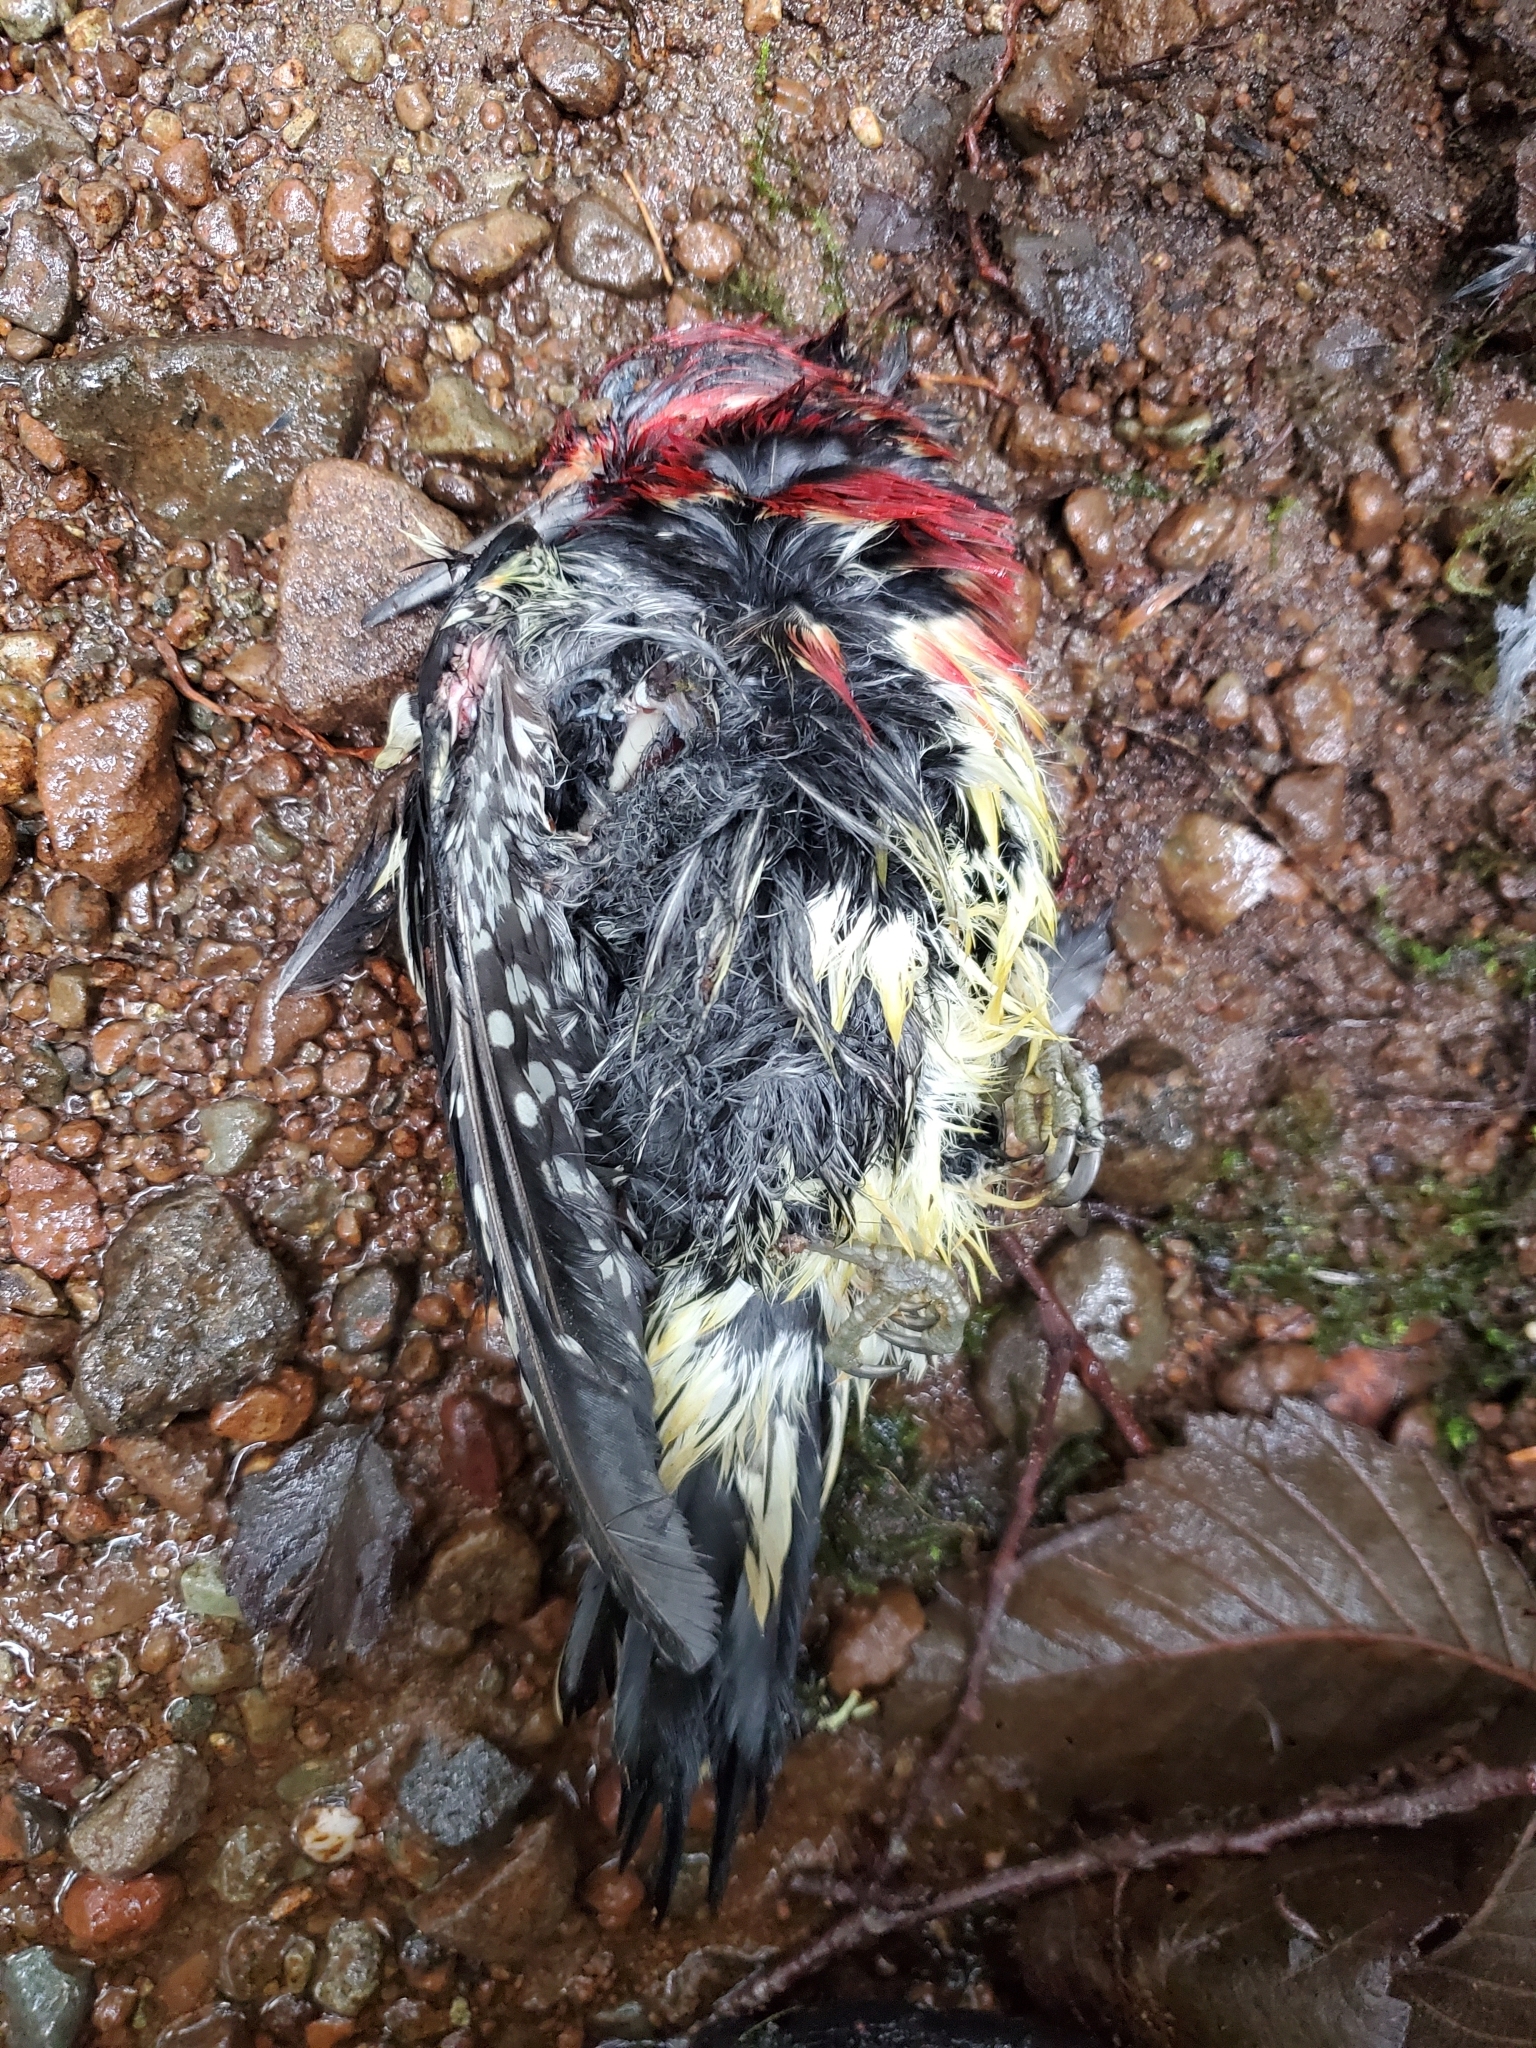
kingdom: Animalia
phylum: Chordata
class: Aves
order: Piciformes
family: Picidae
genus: Sphyrapicus
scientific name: Sphyrapicus ruber
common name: Red-breasted sapsucker
